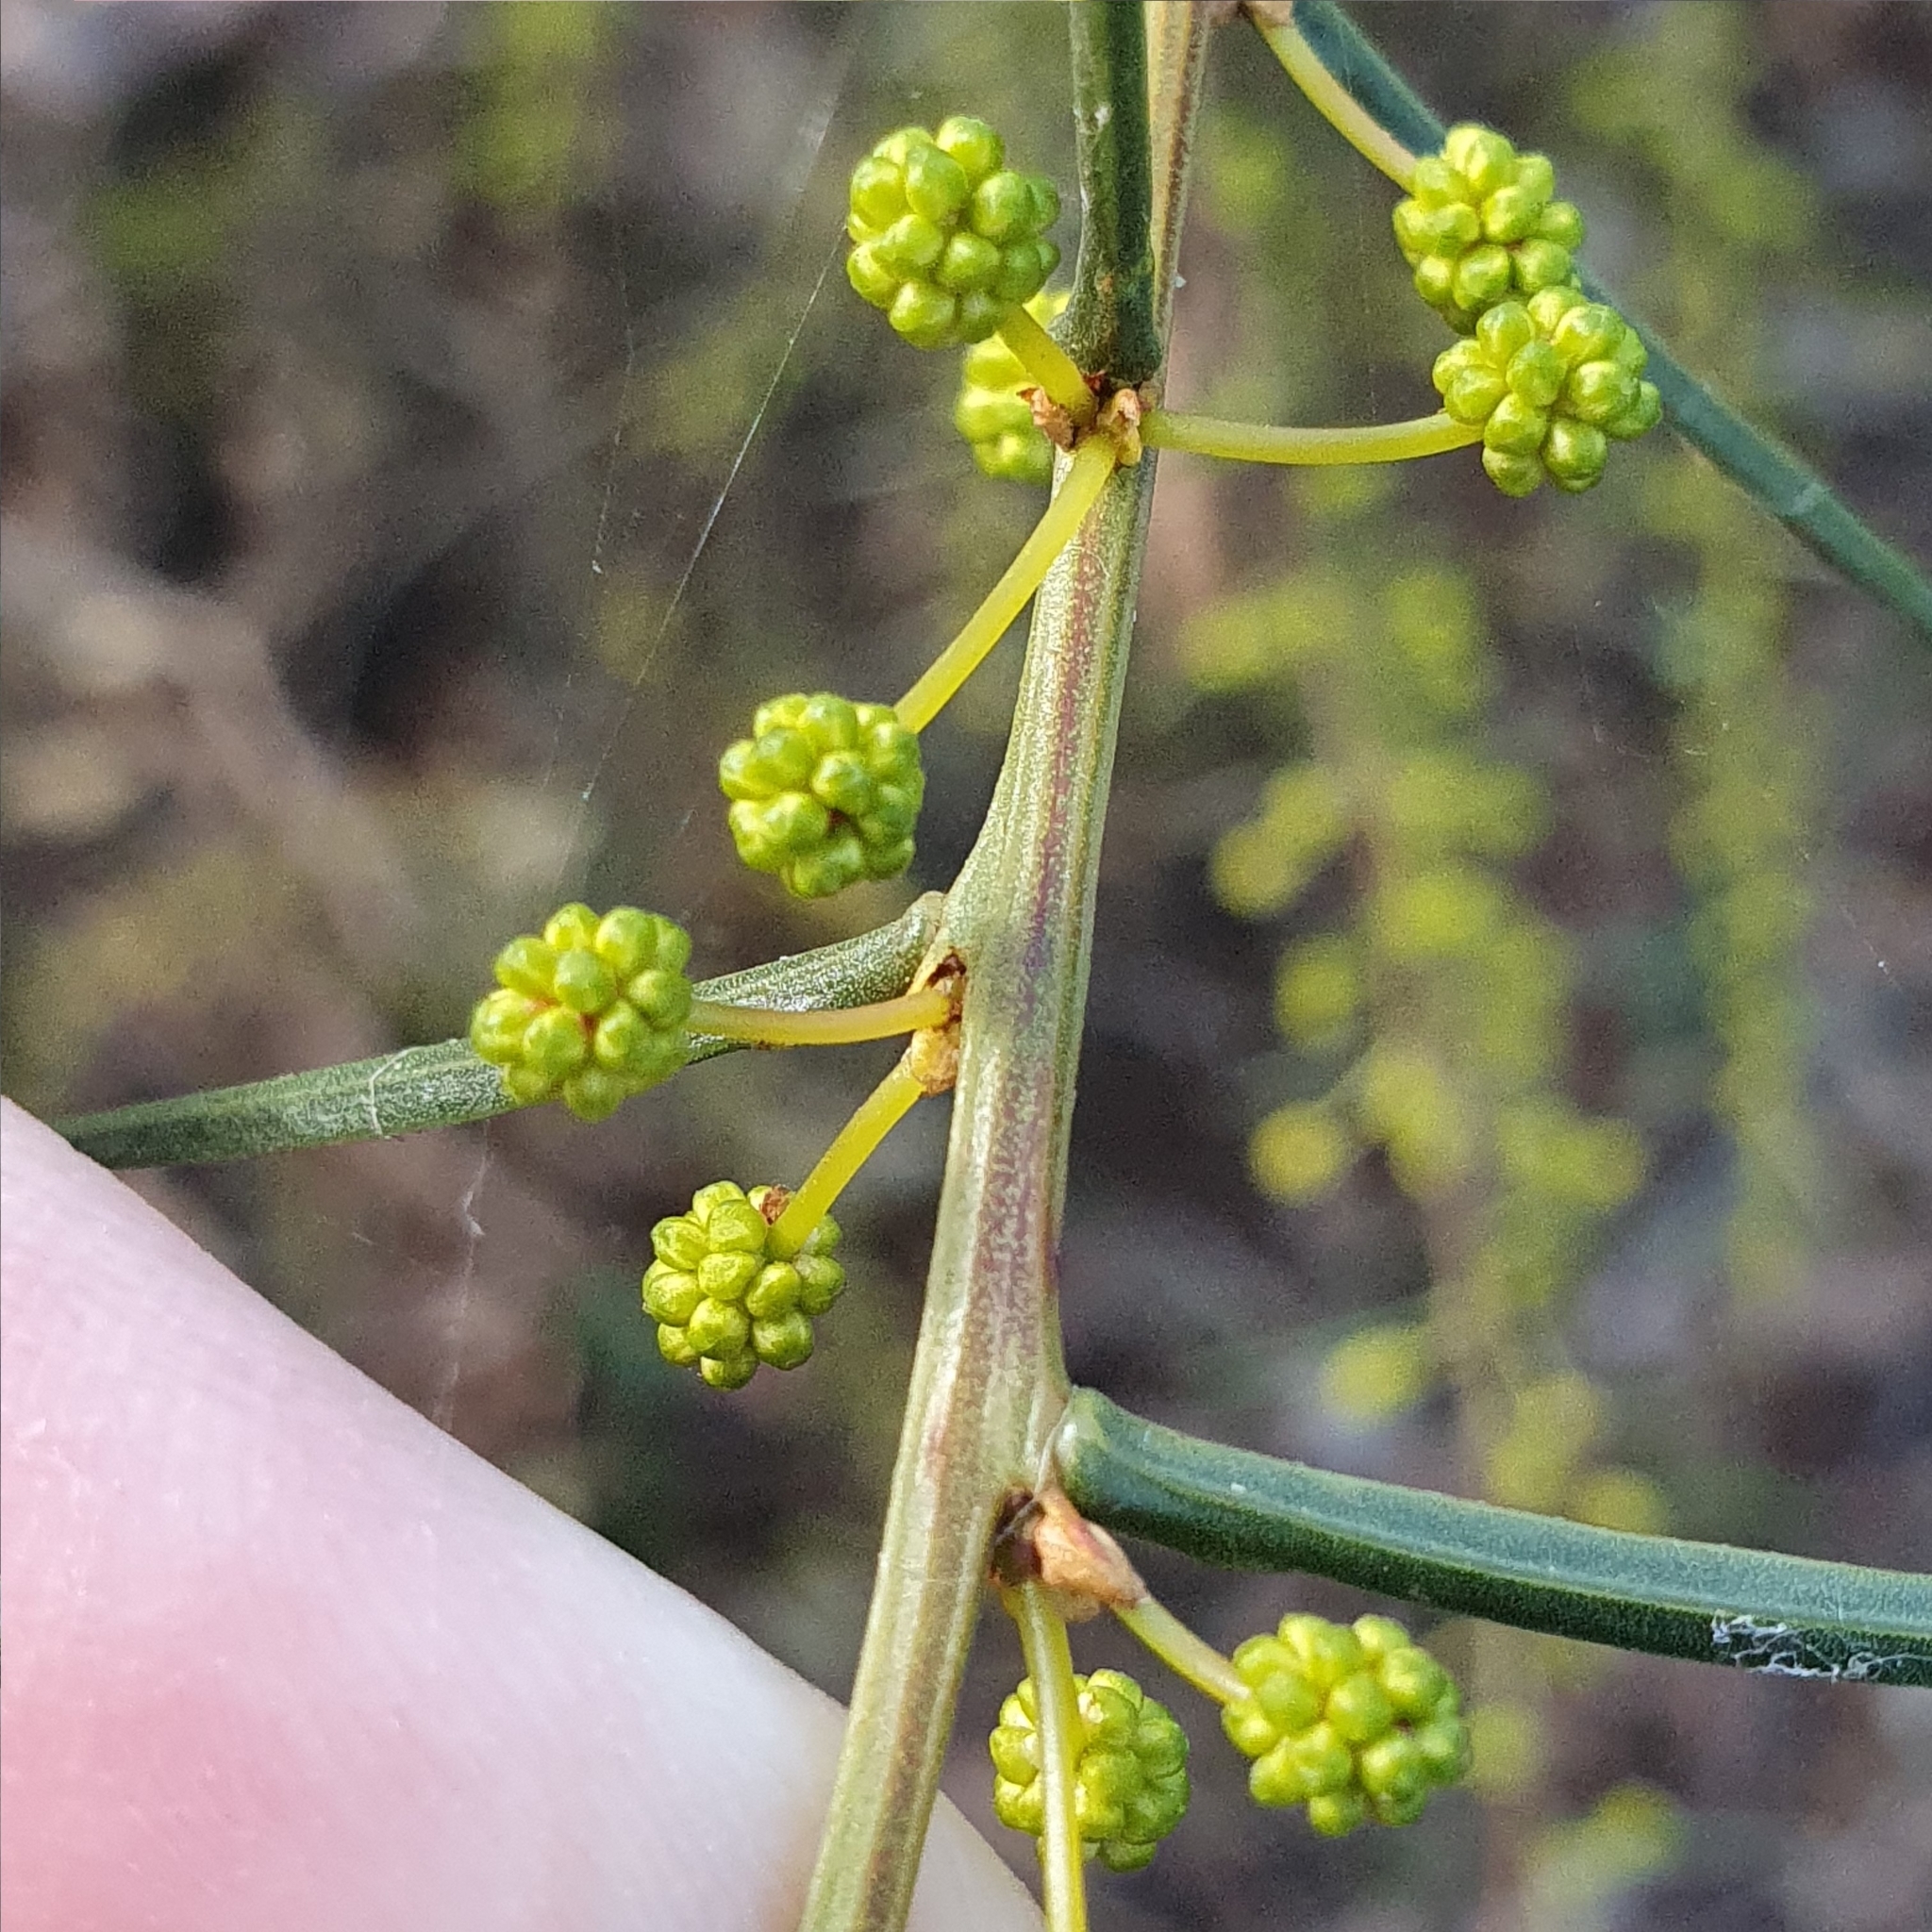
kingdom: Plantae
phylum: Tracheophyta
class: Magnoliopsida
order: Fabales
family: Fabaceae
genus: Acacia
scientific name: Acacia genistifolia
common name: Early wattle
